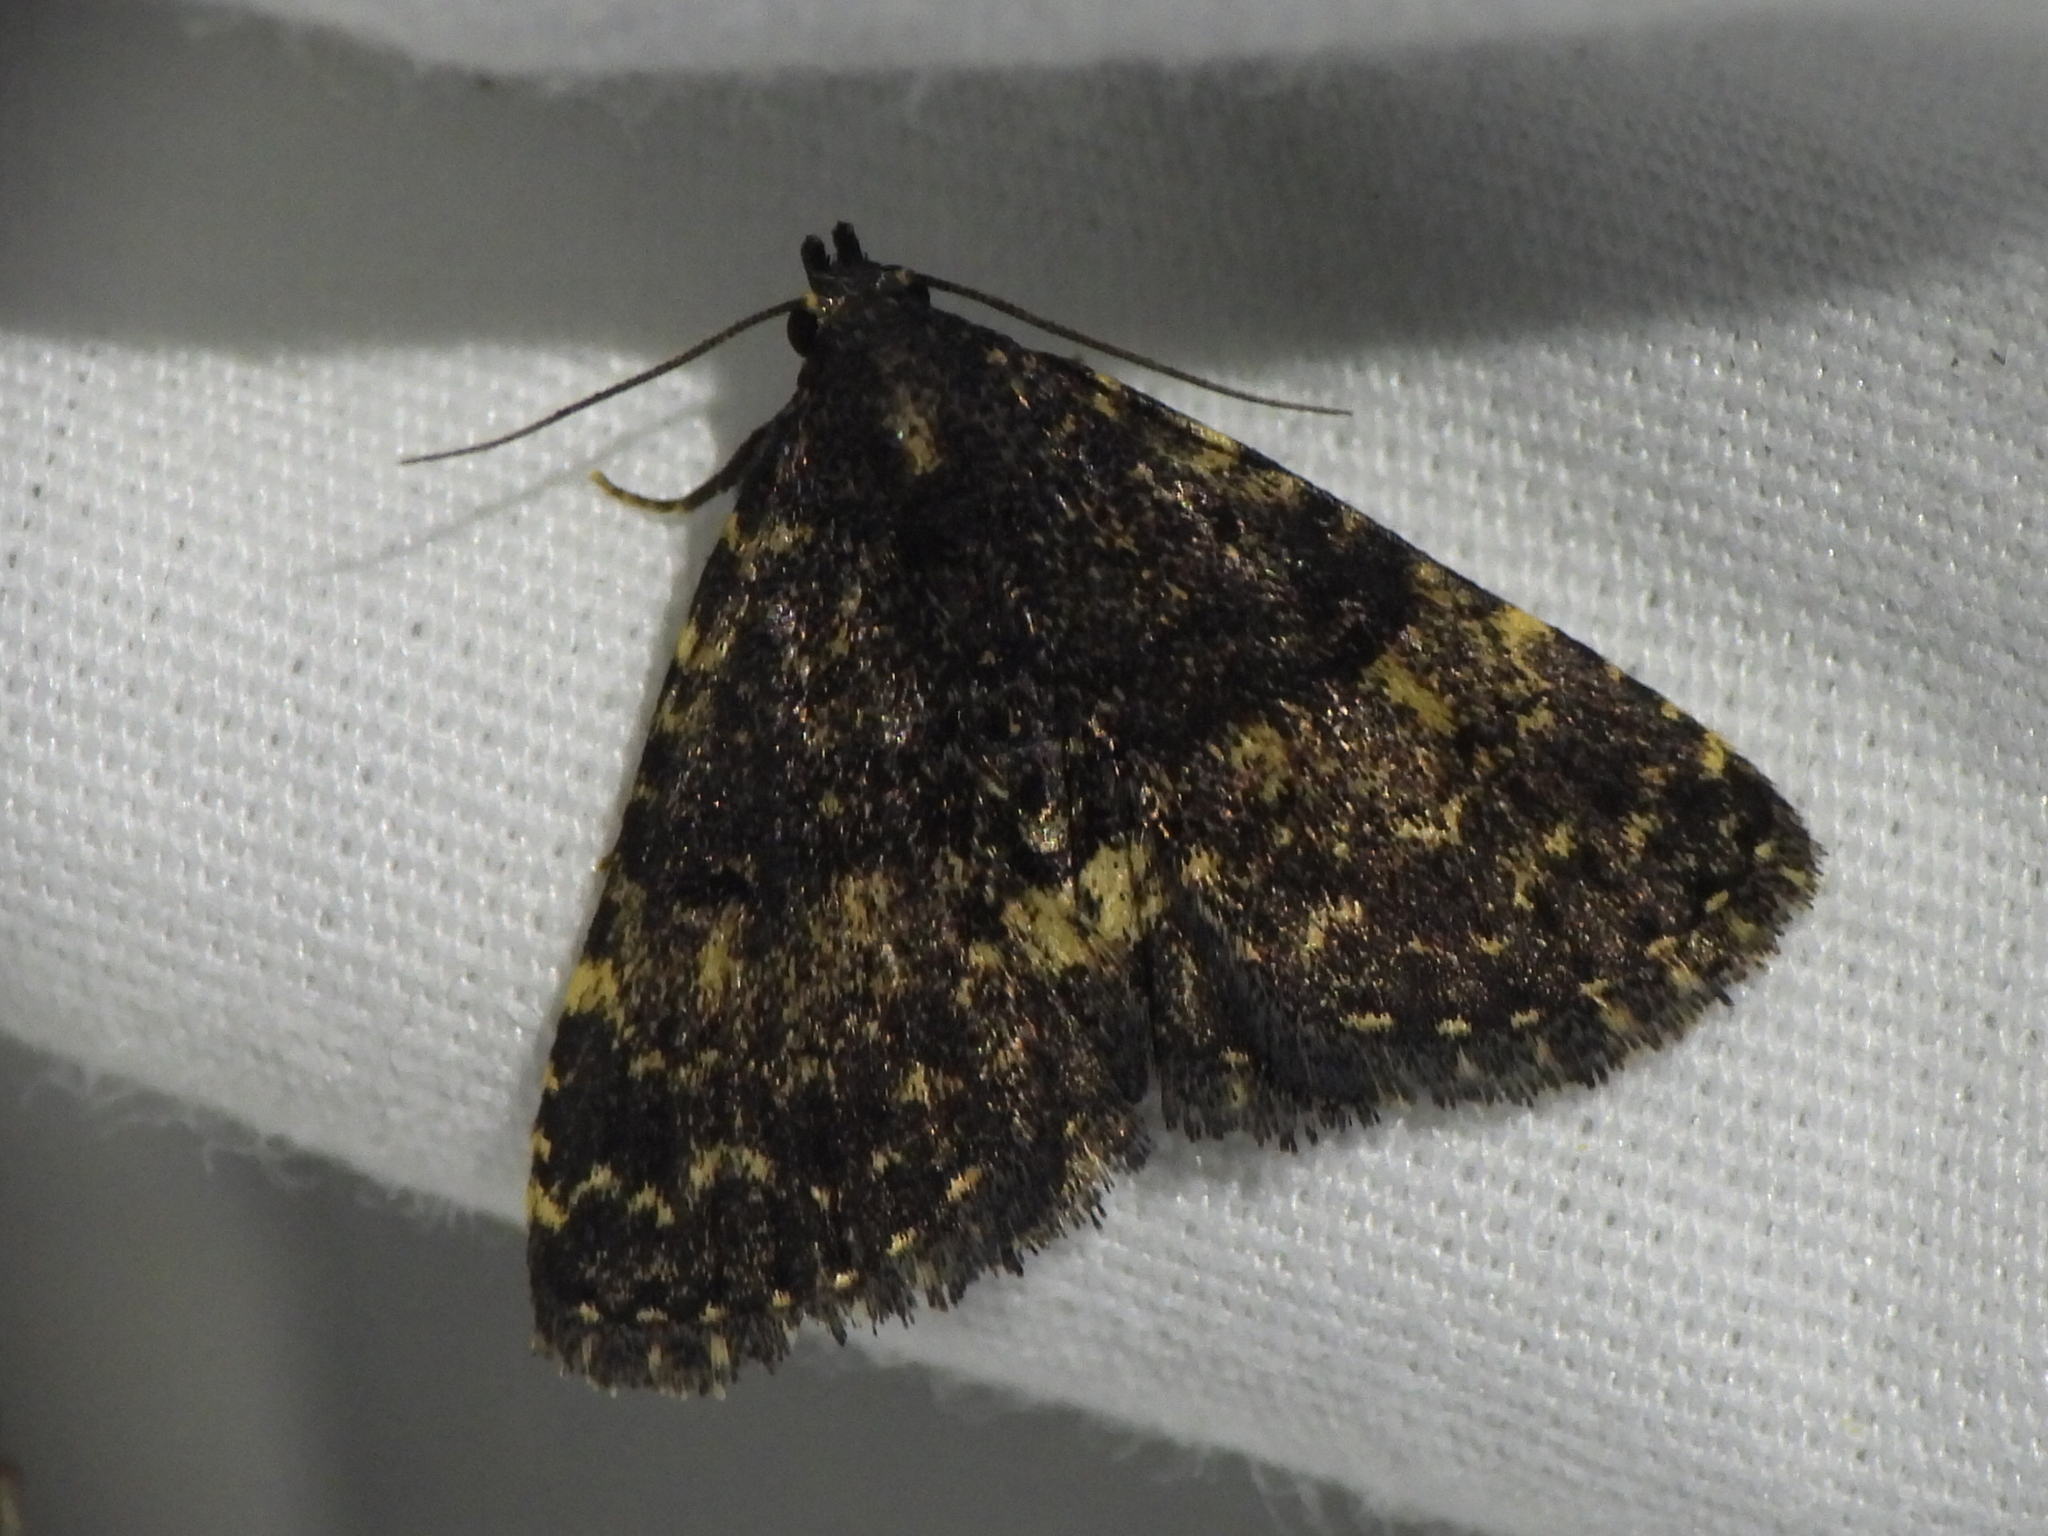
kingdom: Animalia
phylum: Arthropoda
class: Insecta
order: Lepidoptera
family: Erebidae
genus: Metalectra
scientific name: Metalectra diabolica
